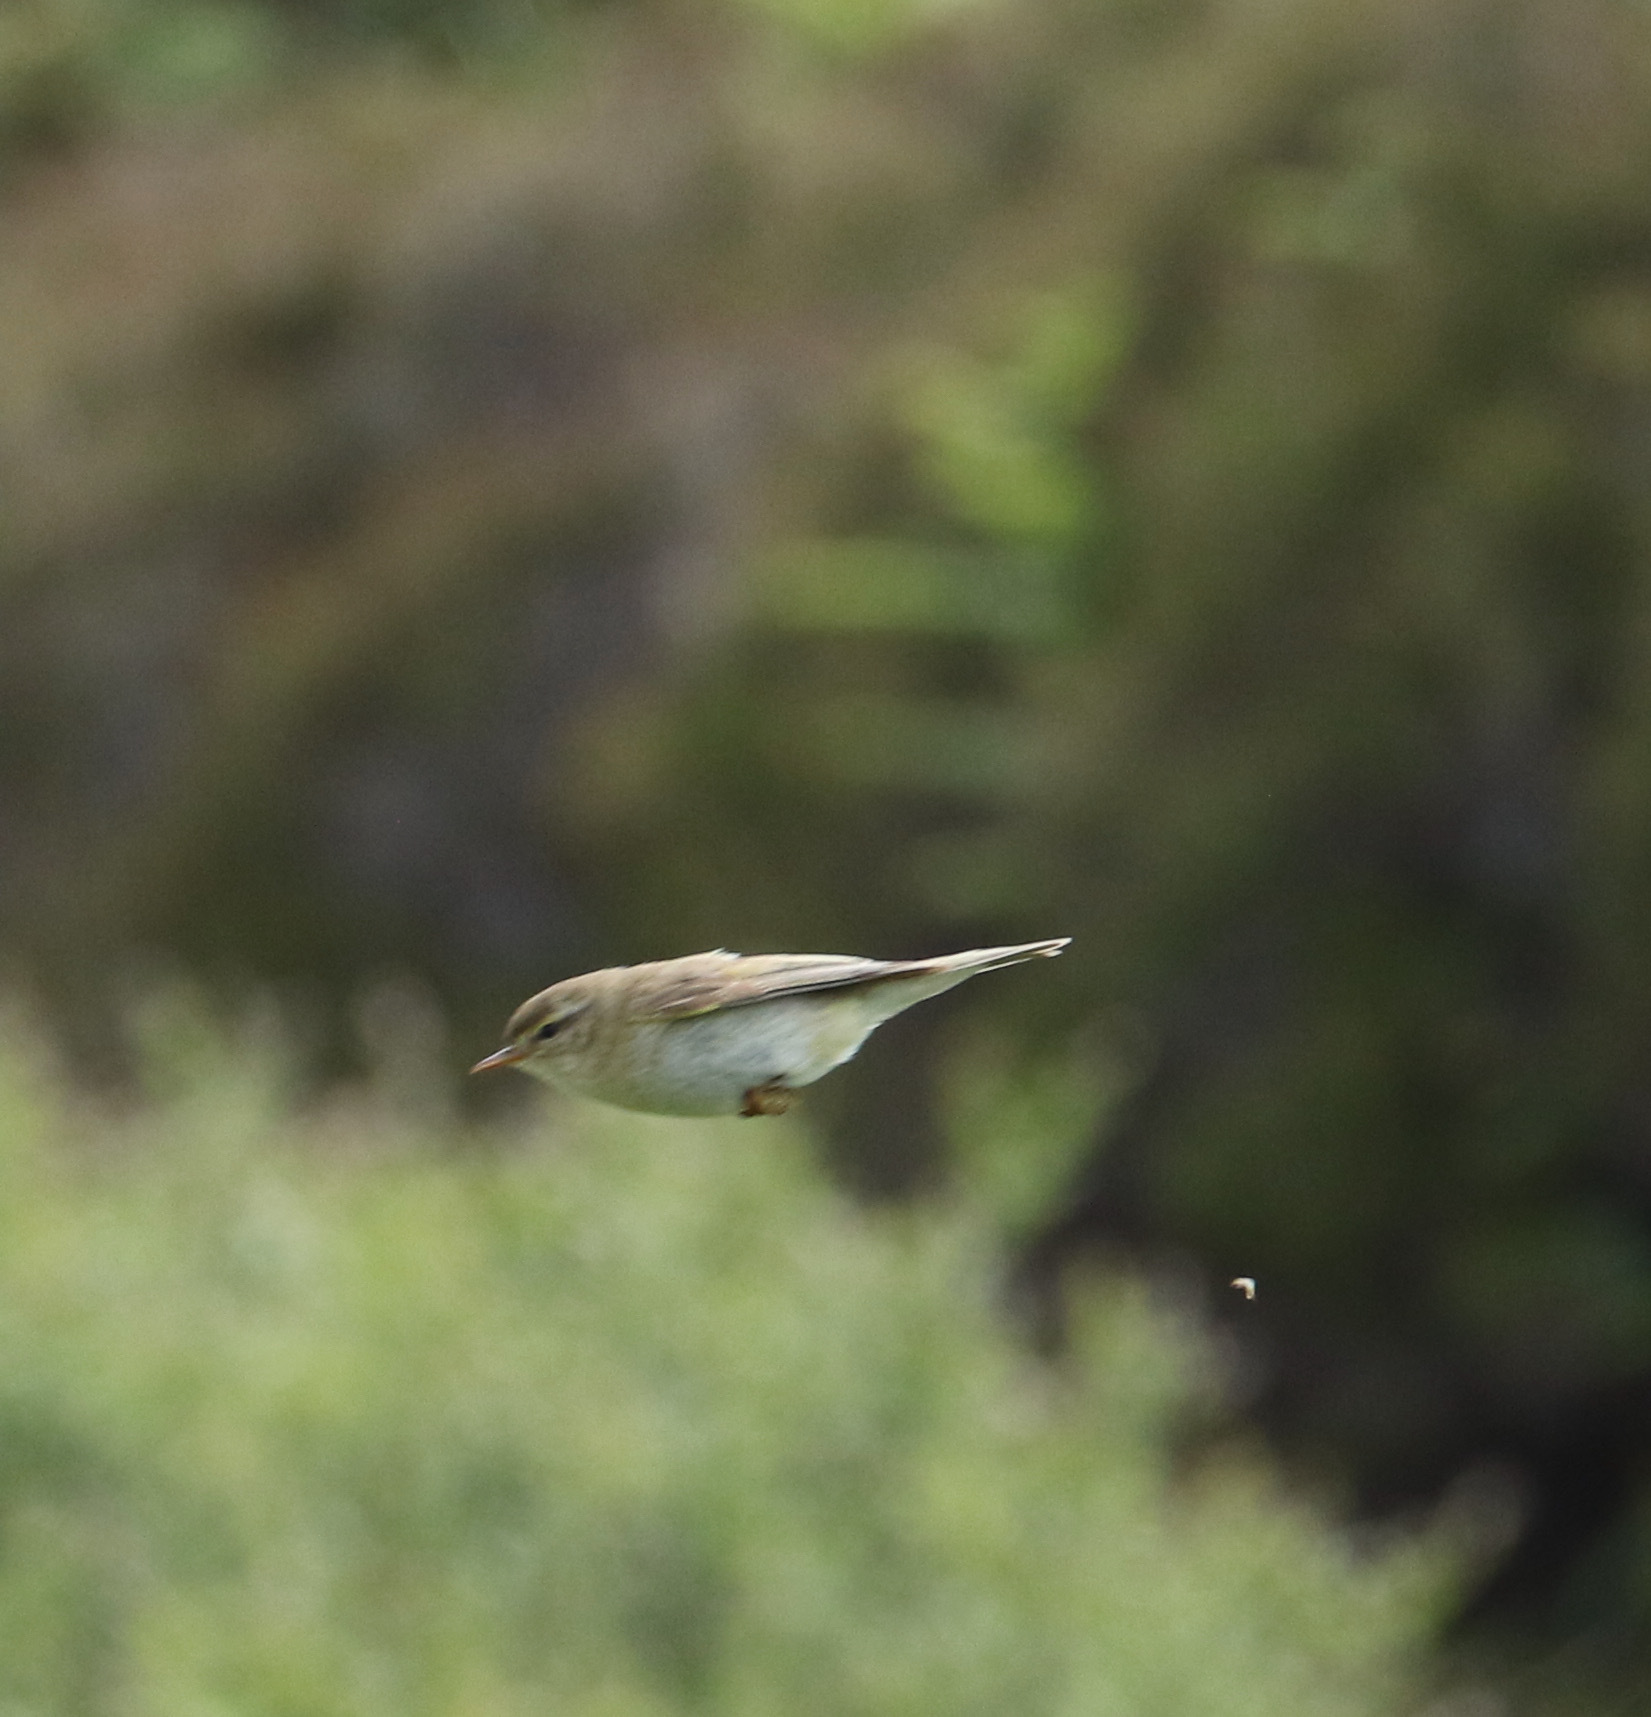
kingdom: Animalia
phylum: Chordata
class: Aves
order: Passeriformes
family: Phylloscopidae
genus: Phylloscopus
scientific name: Phylloscopus trochilus
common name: Willow warbler
